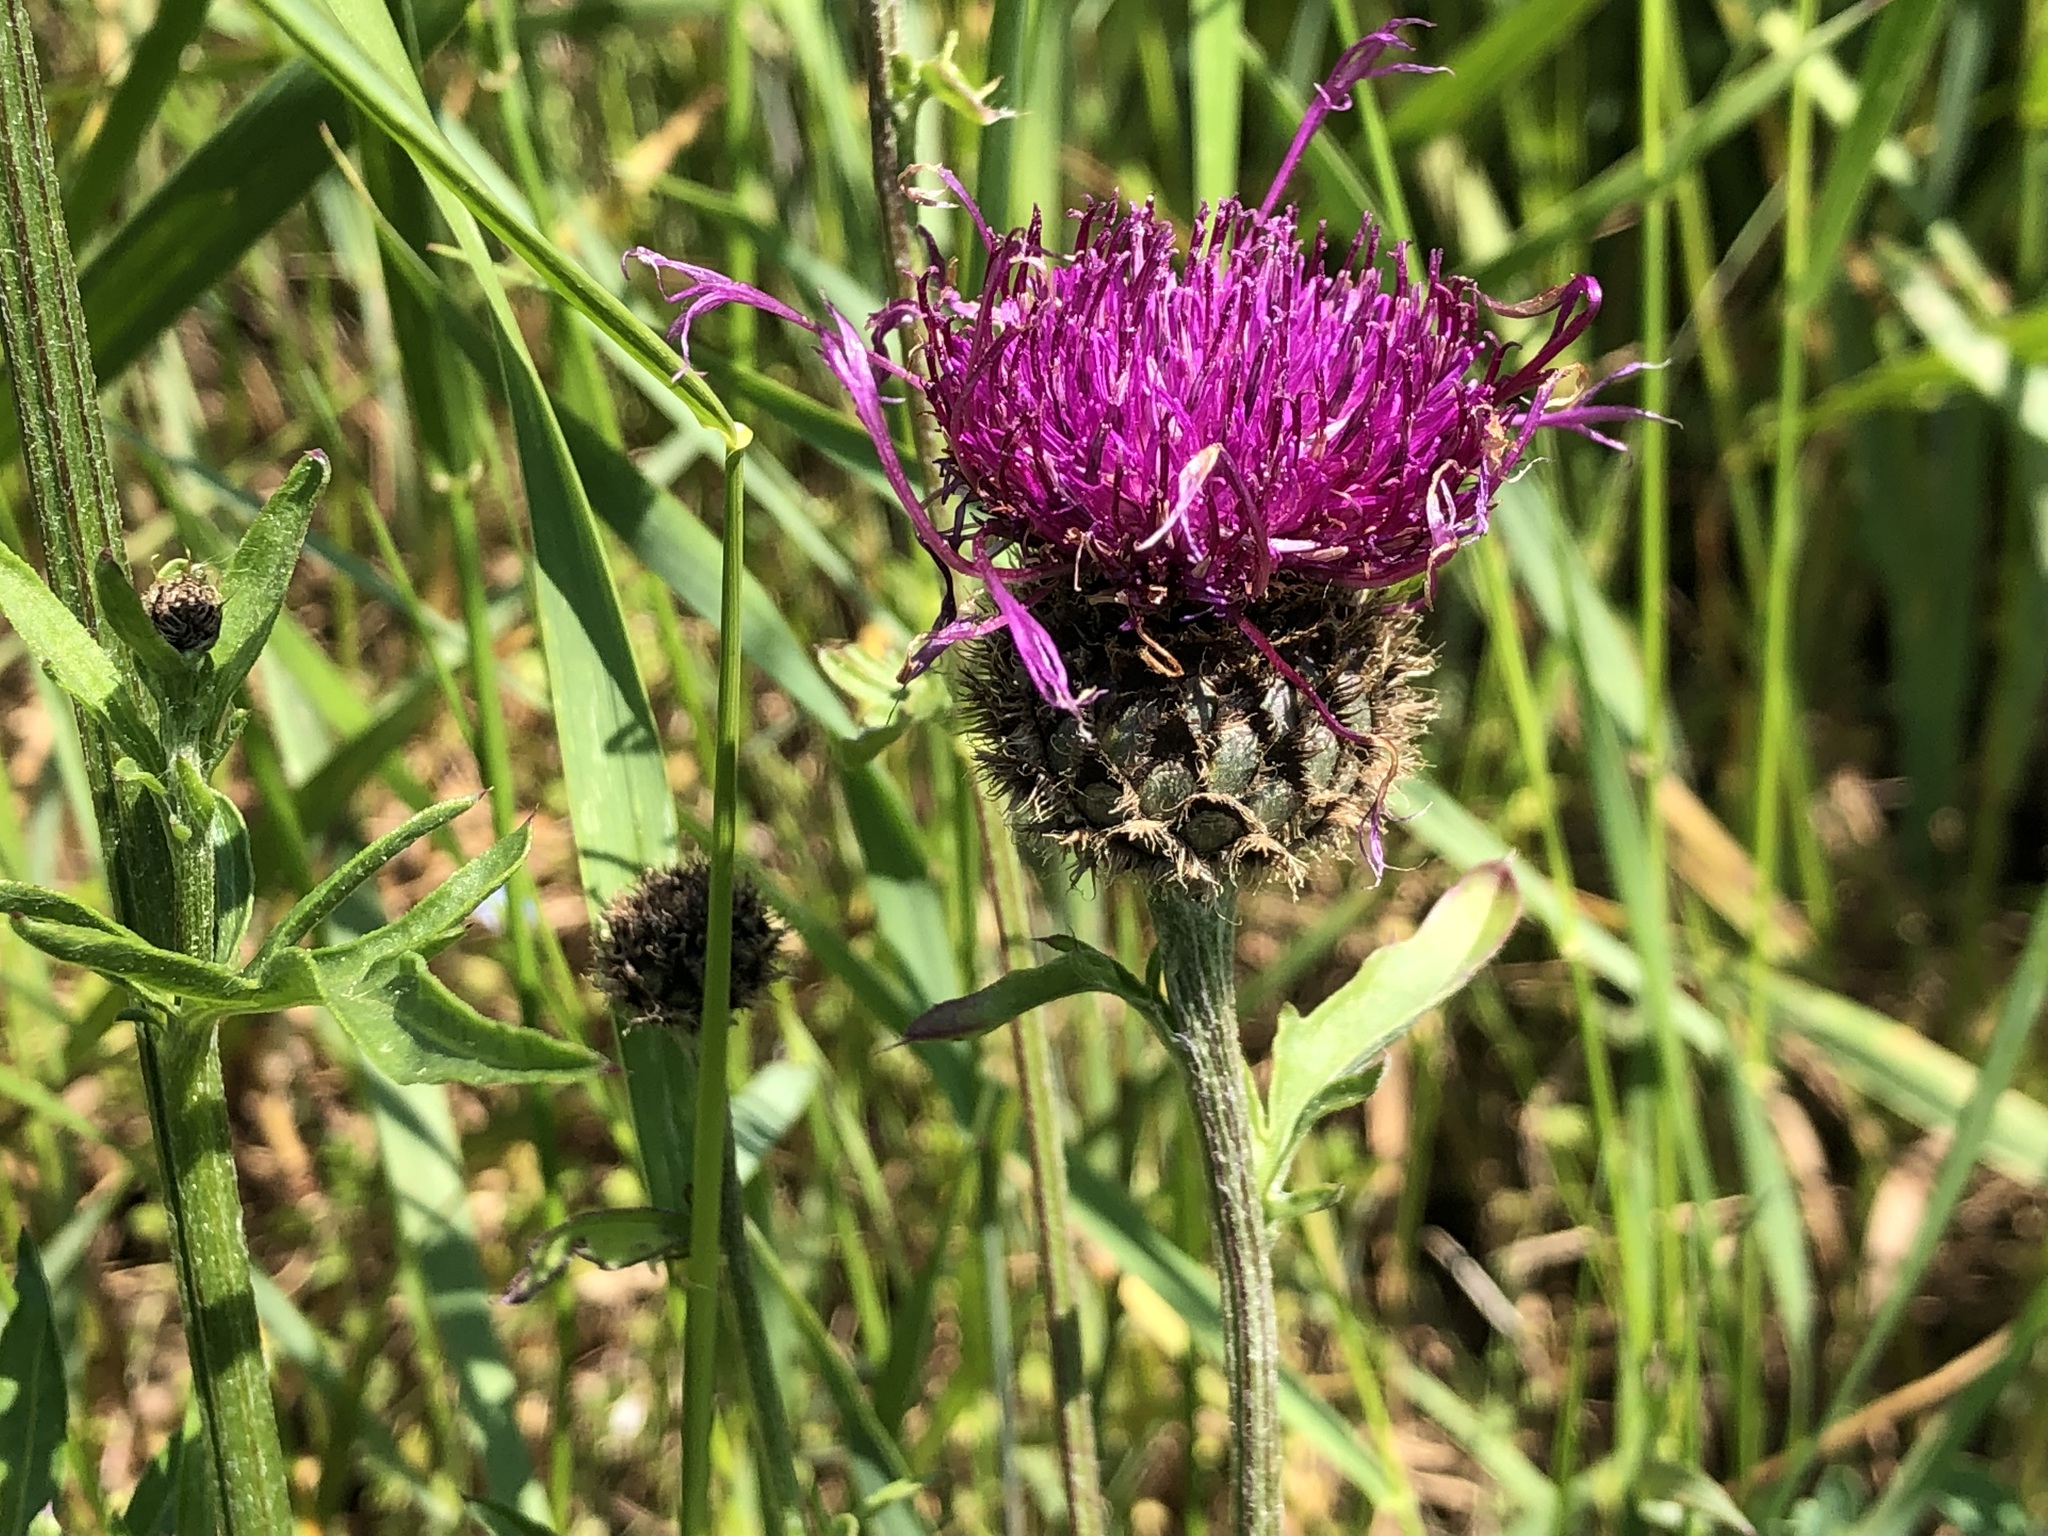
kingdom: Plantae
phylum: Tracheophyta
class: Magnoliopsida
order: Asterales
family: Asteraceae
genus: Centaurea
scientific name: Centaurea scabiosa
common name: Greater knapweed
